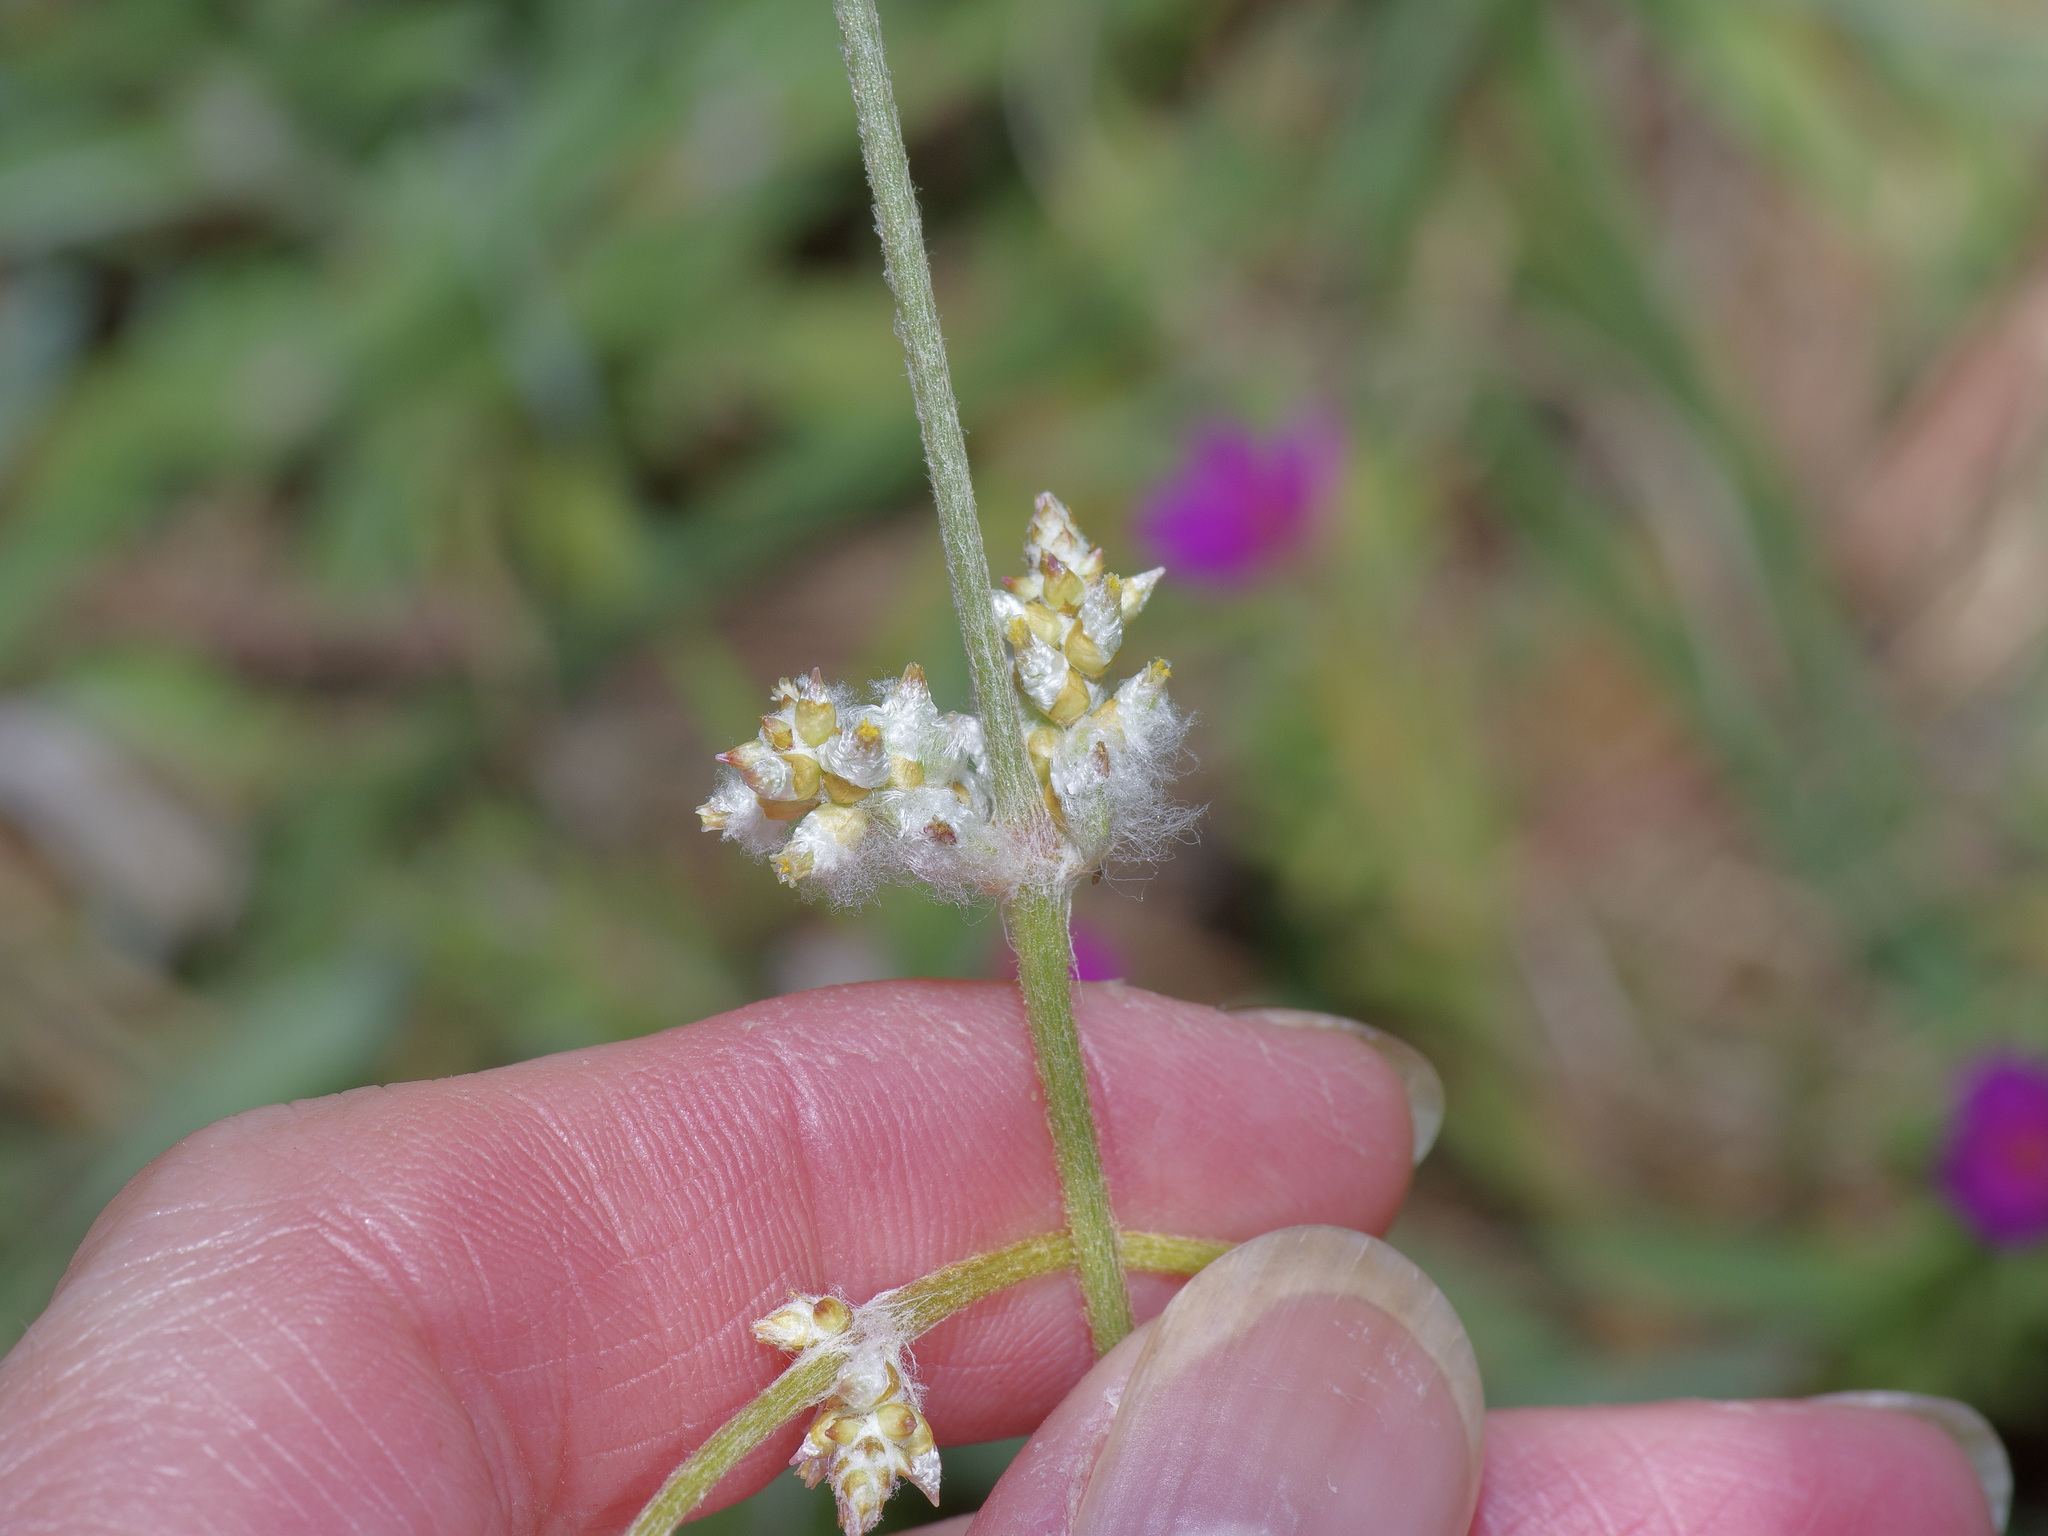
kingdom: Plantae
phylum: Tracheophyta
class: Magnoliopsida
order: Caryophyllales
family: Amaranthaceae
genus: Froelichia
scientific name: Froelichia gracilis
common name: Slender cottonweed
